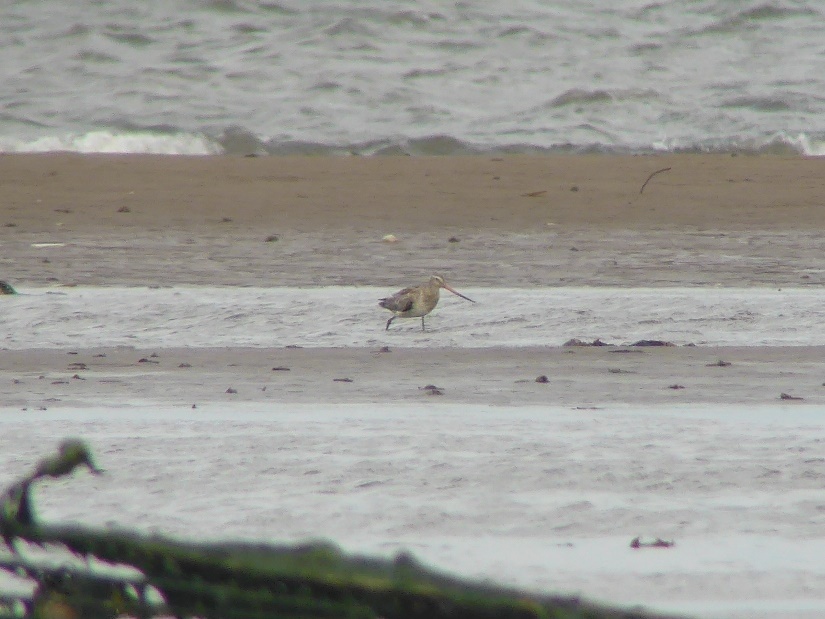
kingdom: Animalia
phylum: Chordata
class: Aves
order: Charadriiformes
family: Scolopacidae
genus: Limosa
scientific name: Limosa lapponica
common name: Bar-tailed godwit
